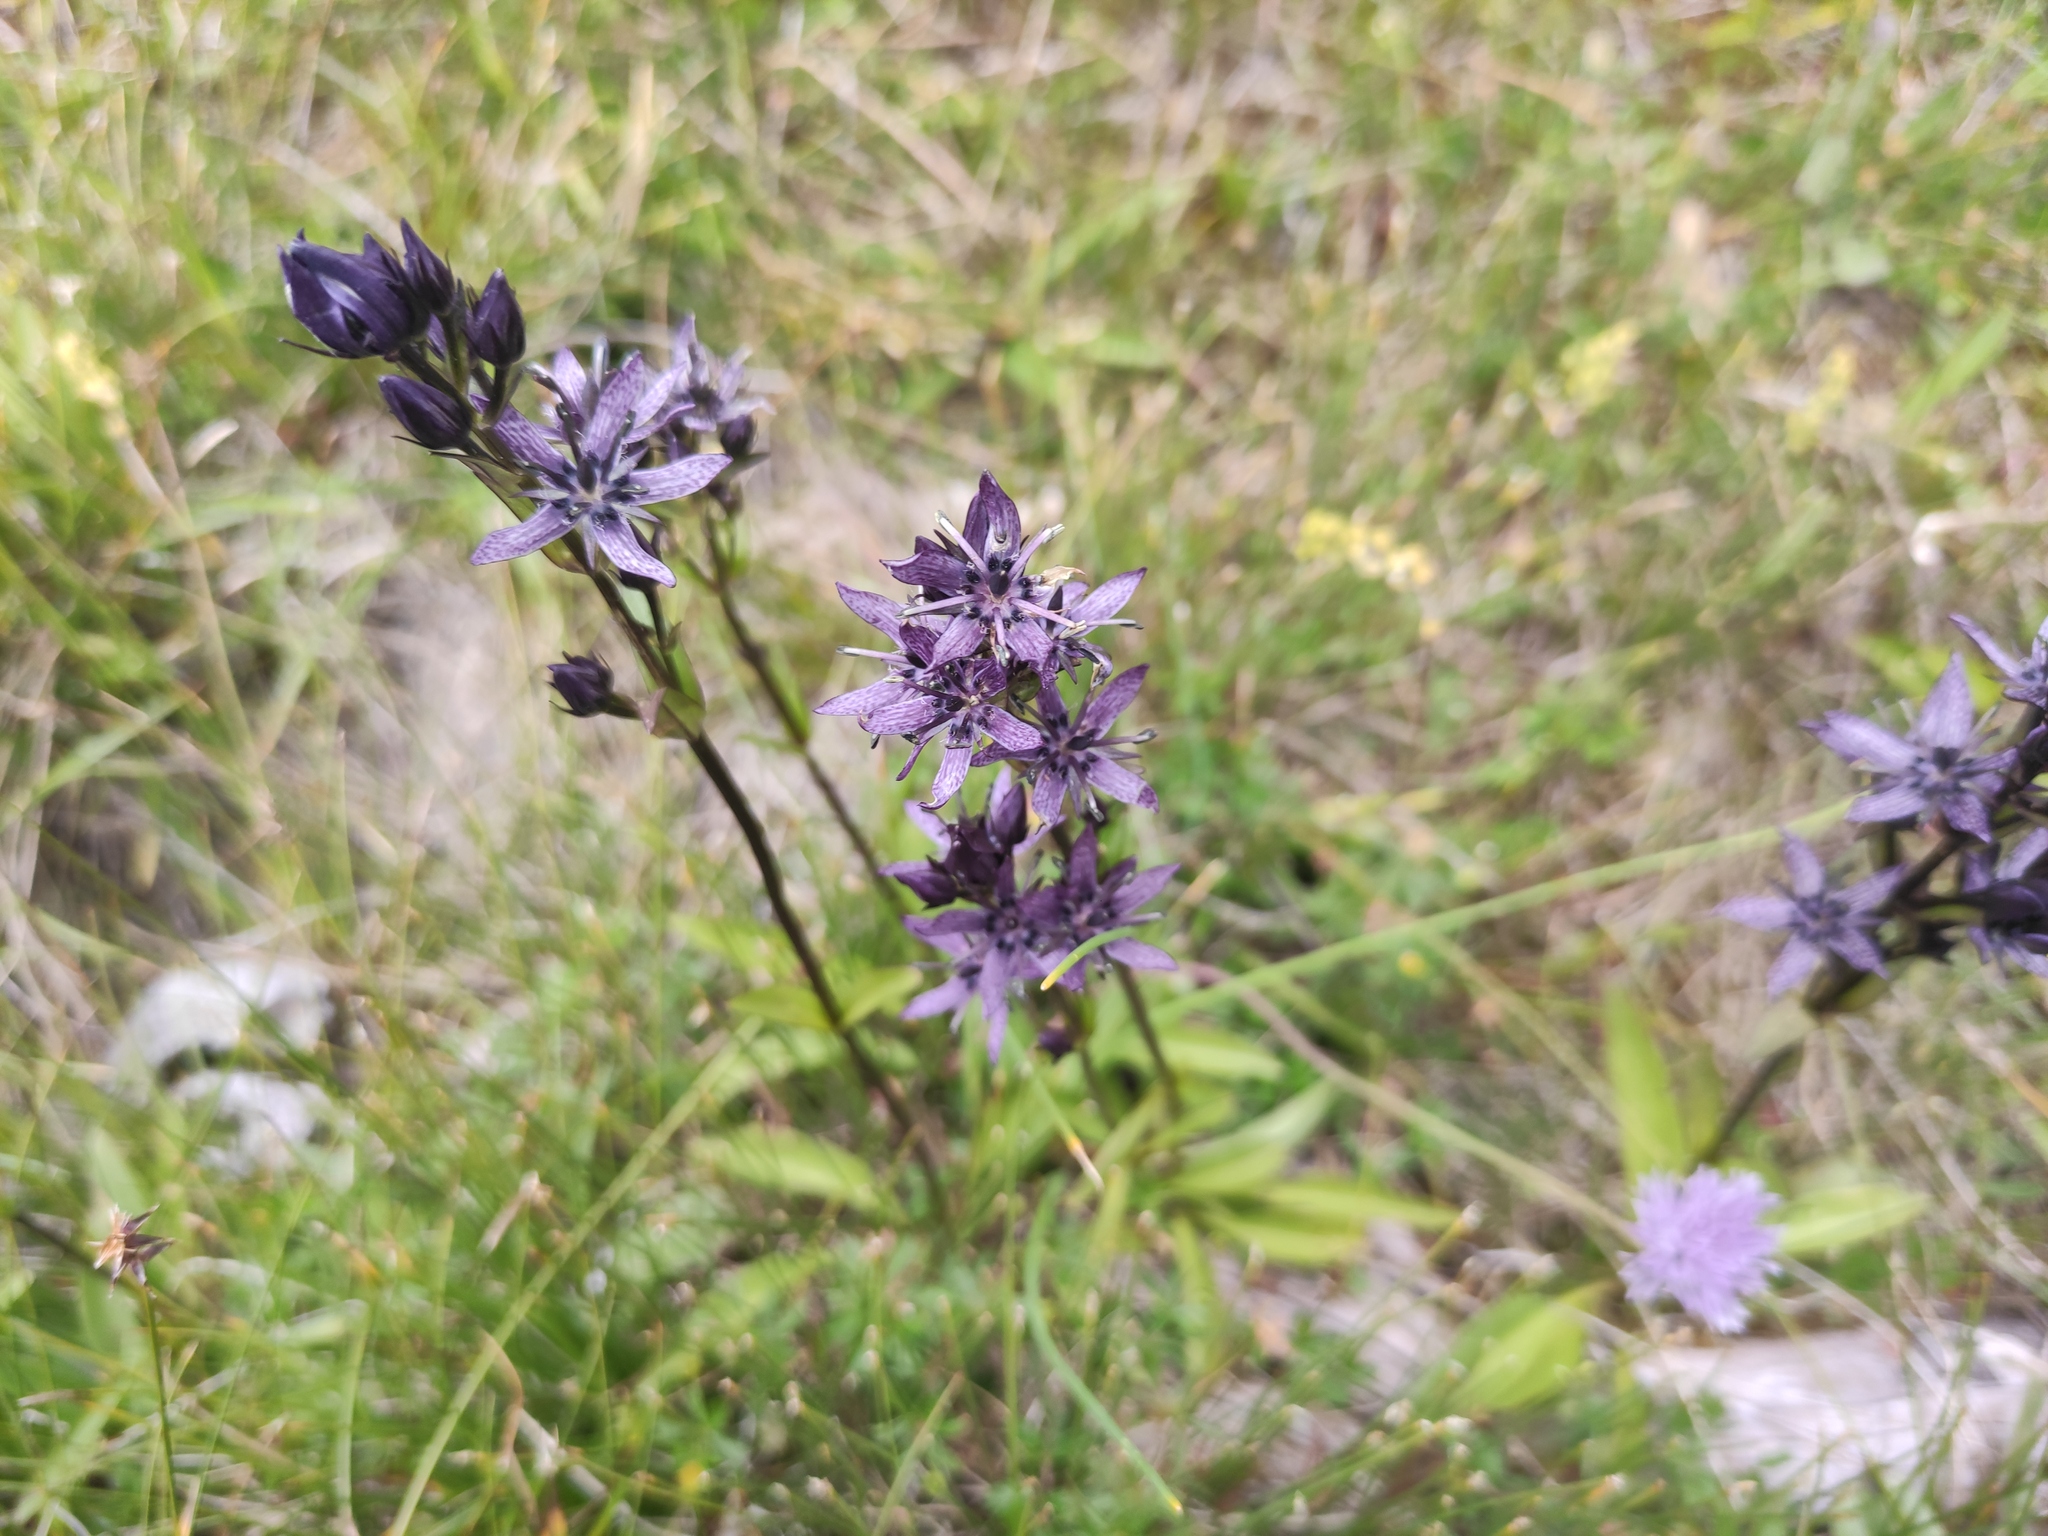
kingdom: Plantae
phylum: Tracheophyta
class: Magnoliopsida
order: Gentianales
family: Gentianaceae
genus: Swertia
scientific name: Swertia perennis
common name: Alpine bog swertia
